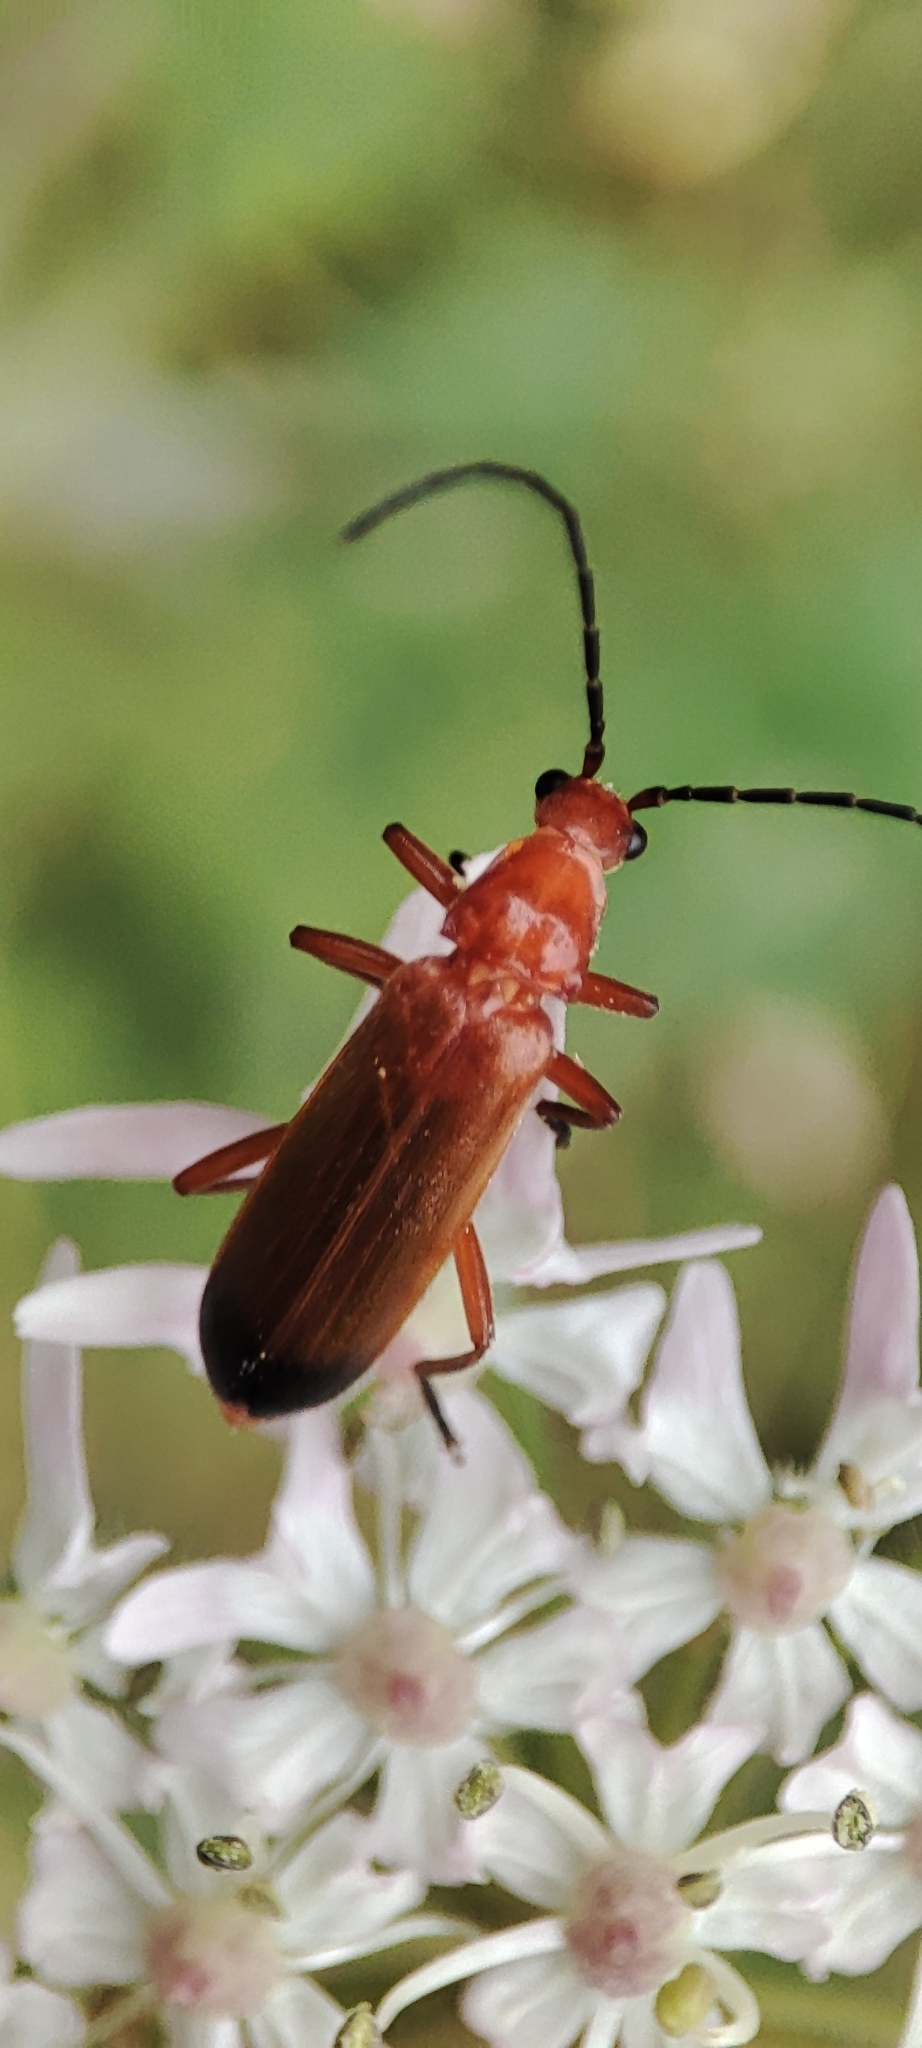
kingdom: Animalia
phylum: Arthropoda
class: Insecta
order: Coleoptera
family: Cantharidae
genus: Rhagonycha
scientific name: Rhagonycha fulva
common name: Common red soldier beetle
